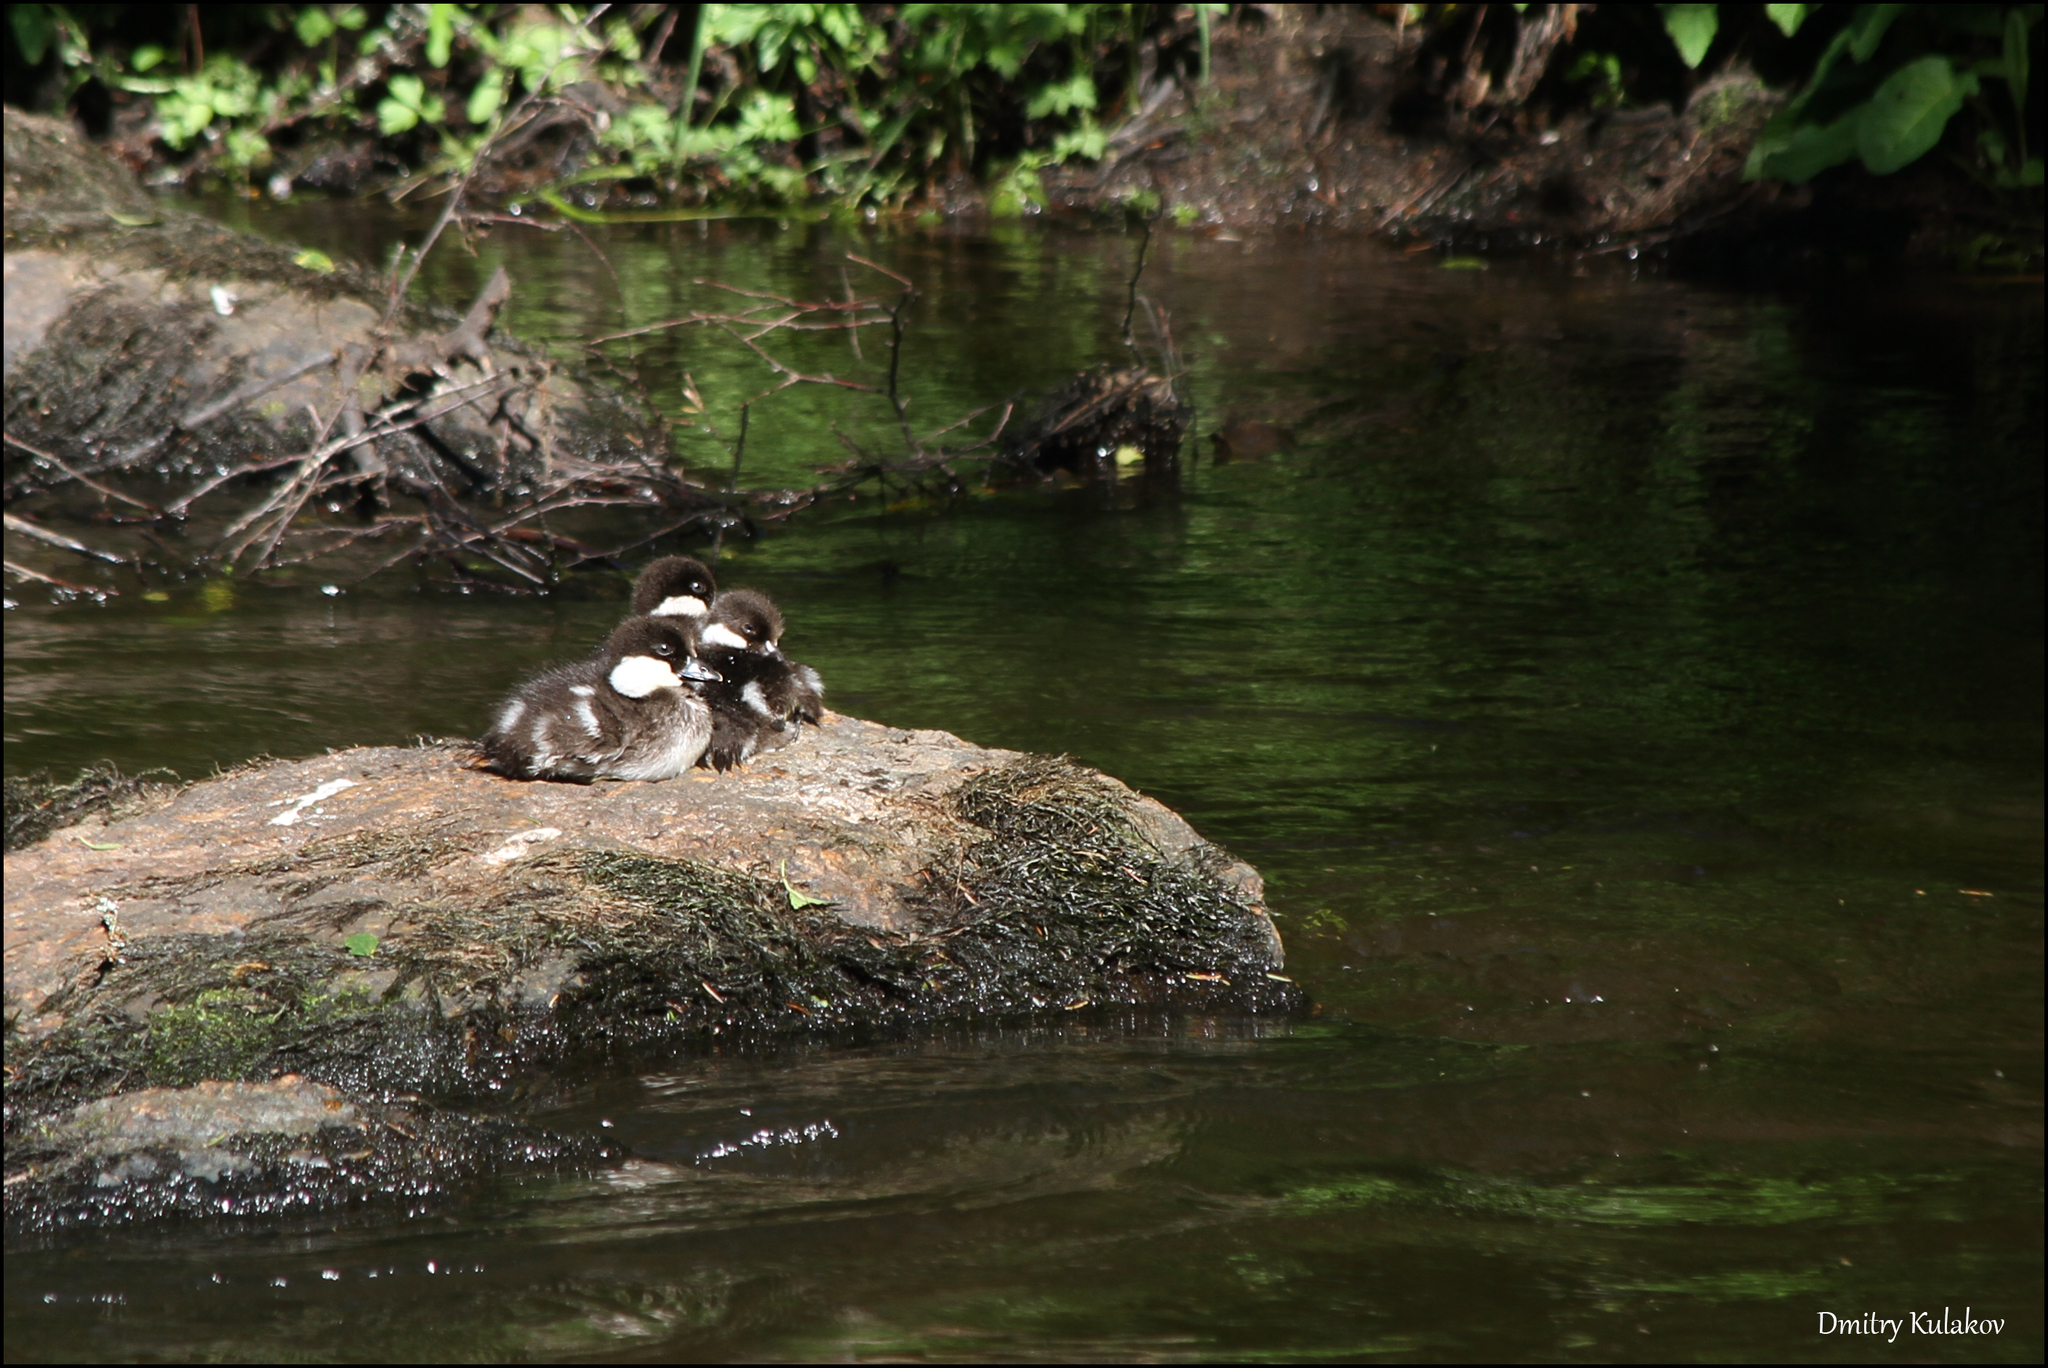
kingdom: Animalia
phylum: Chordata
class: Aves
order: Anseriformes
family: Anatidae
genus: Bucephala
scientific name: Bucephala clangula
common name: Common goldeneye
